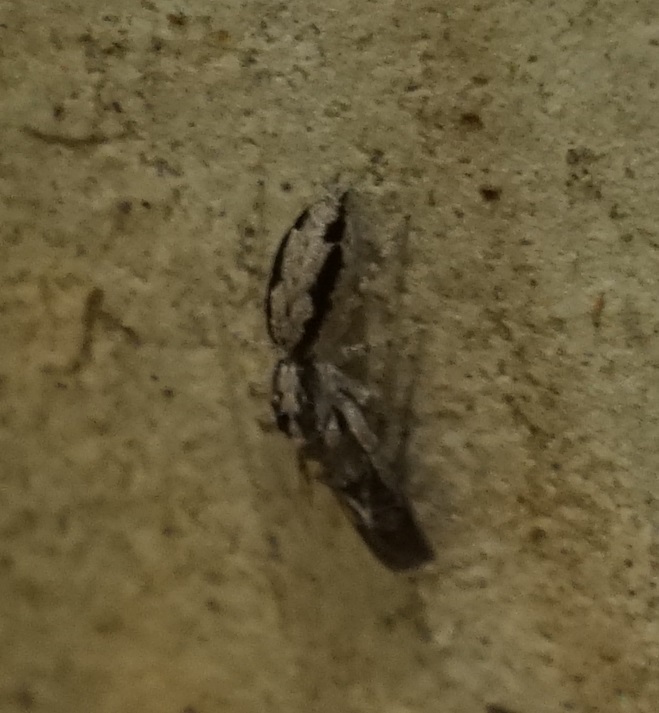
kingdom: Animalia
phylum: Arthropoda
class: Arachnida
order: Araneae
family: Salticidae
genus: Apricia
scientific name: Apricia bracteata
